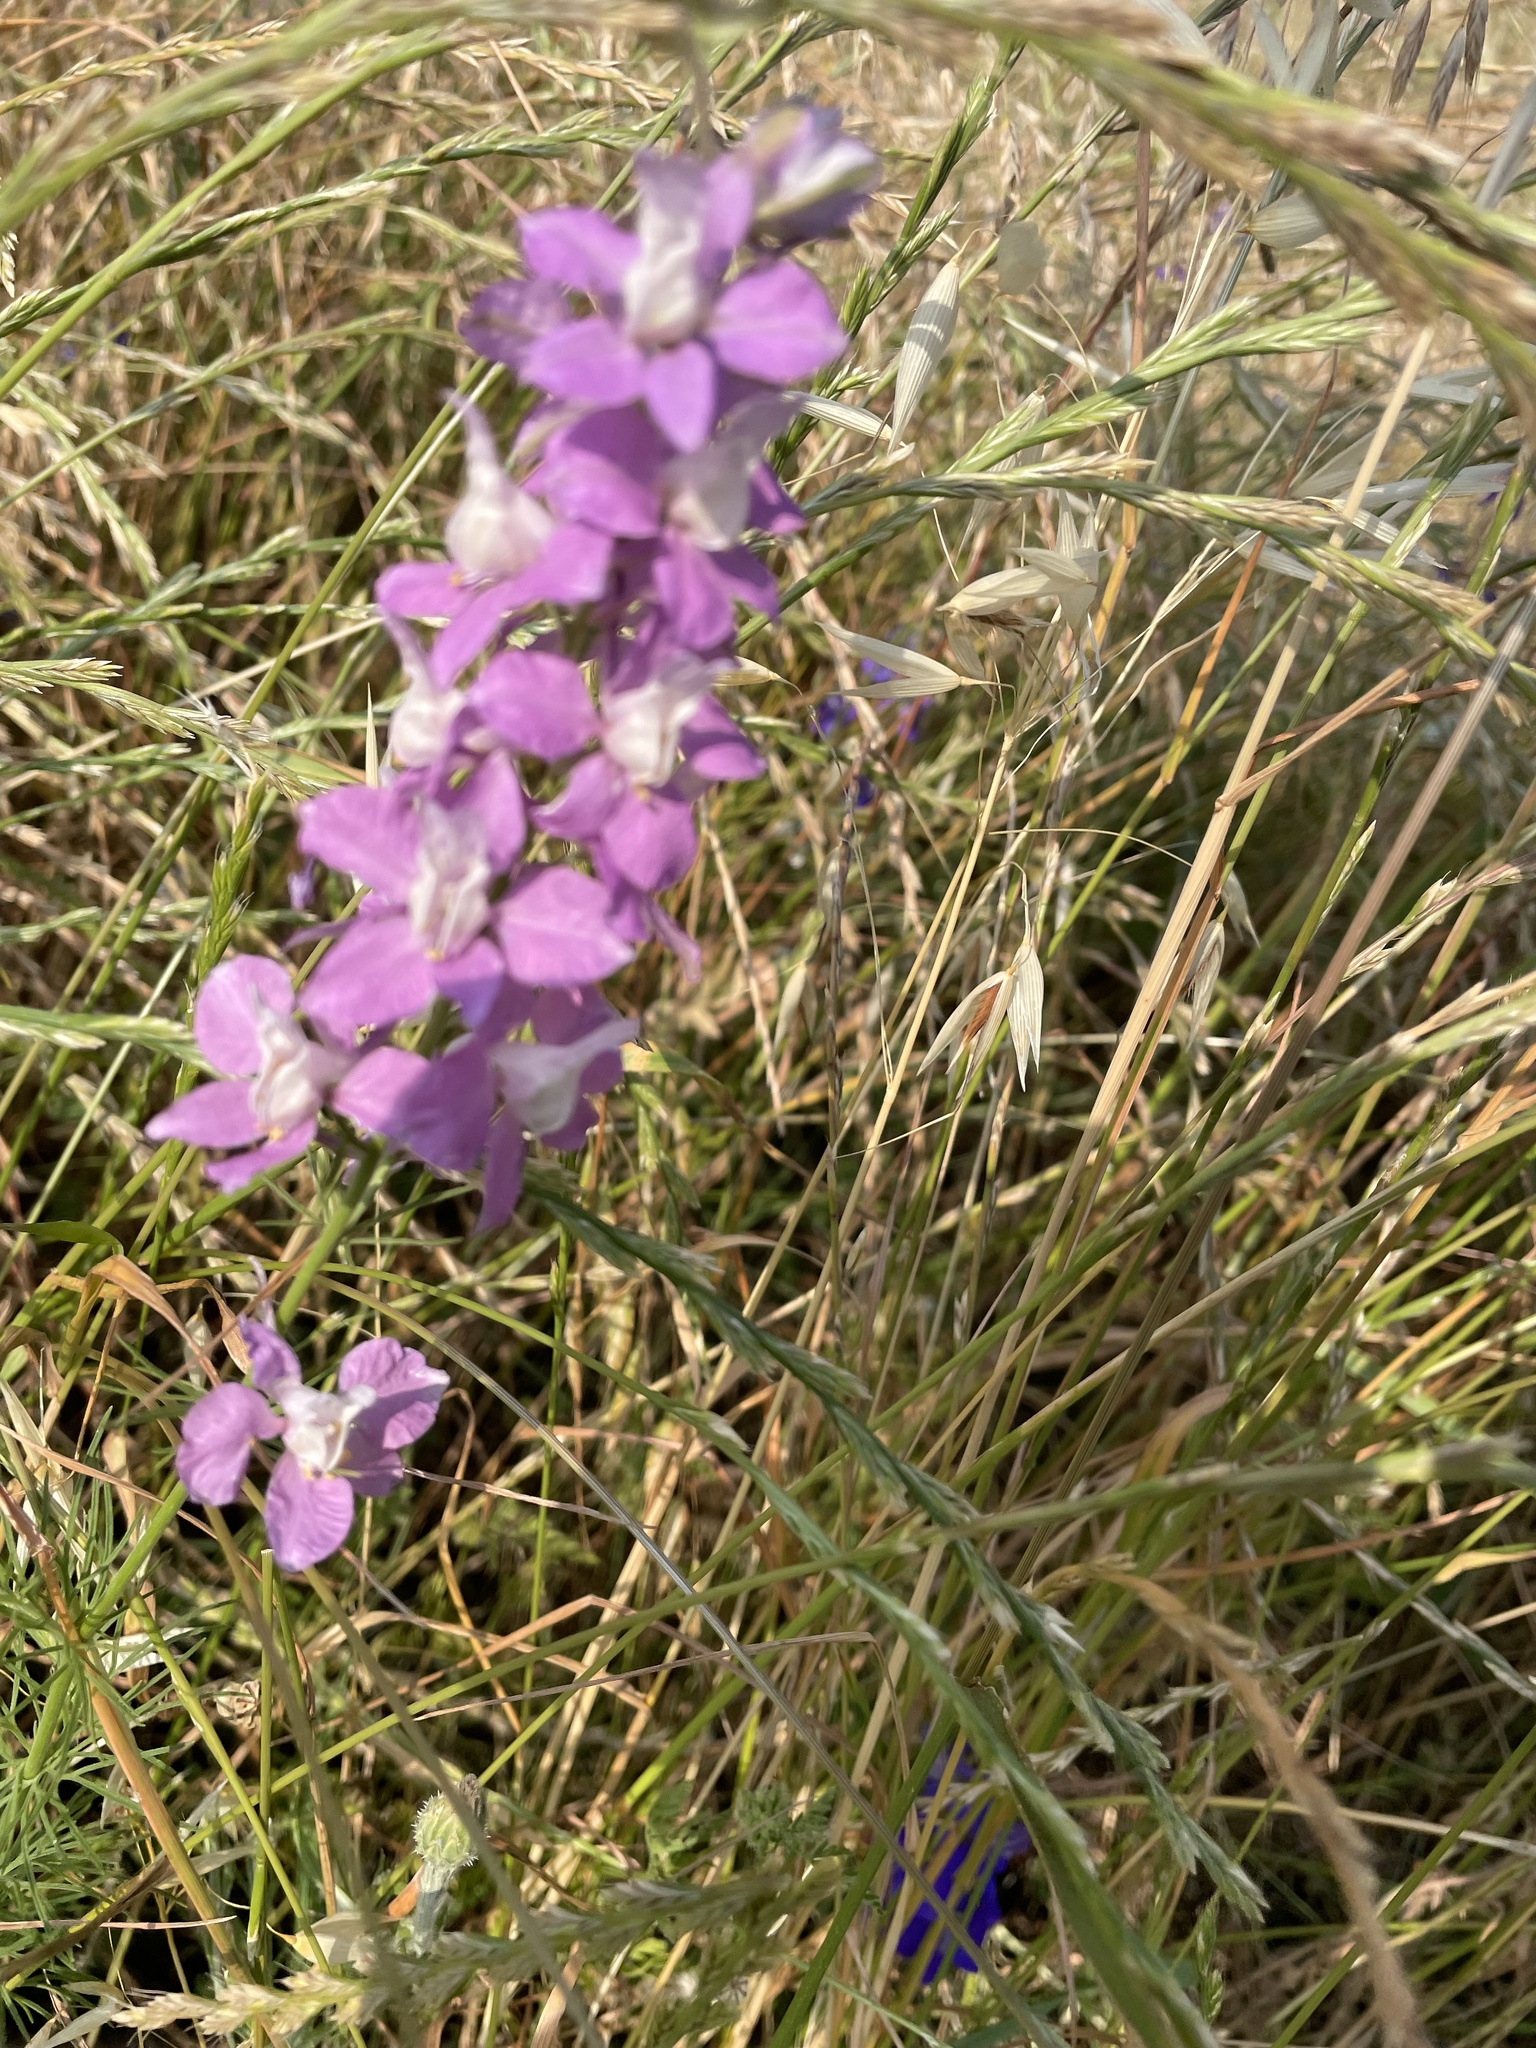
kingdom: Plantae
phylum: Tracheophyta
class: Magnoliopsida
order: Ranunculales
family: Ranunculaceae
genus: Delphinium
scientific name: Delphinium ajacis
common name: Doubtful knight's-spur
